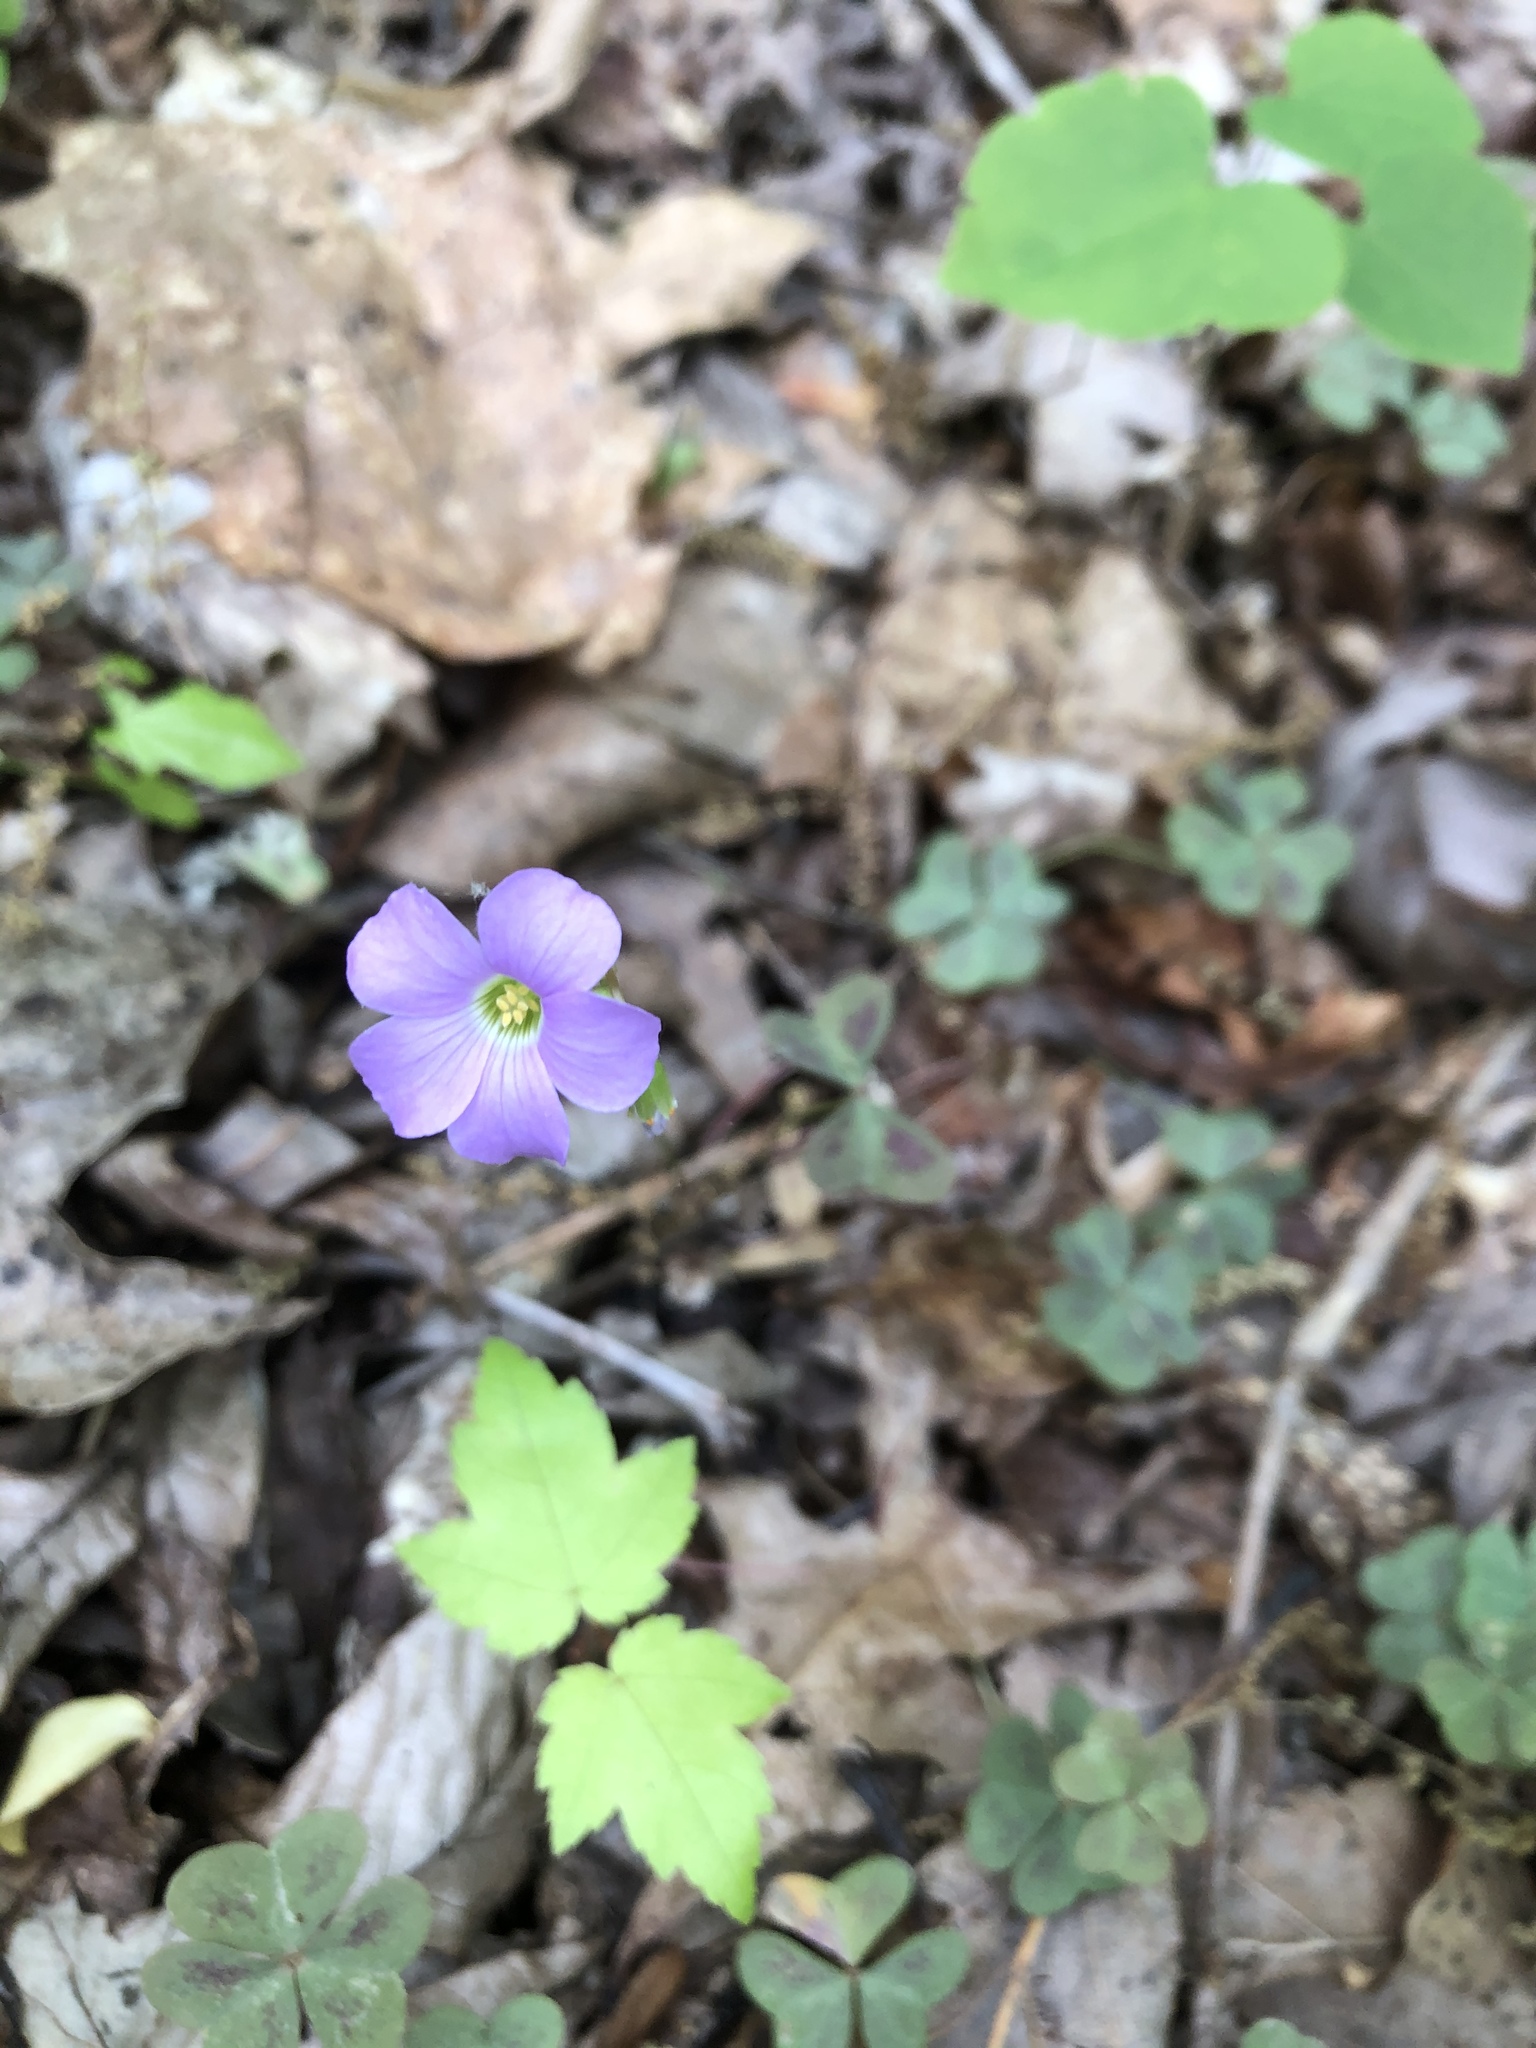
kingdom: Plantae
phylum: Tracheophyta
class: Magnoliopsida
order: Oxalidales
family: Oxalidaceae
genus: Oxalis
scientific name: Oxalis violacea
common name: Violet wood-sorrel
